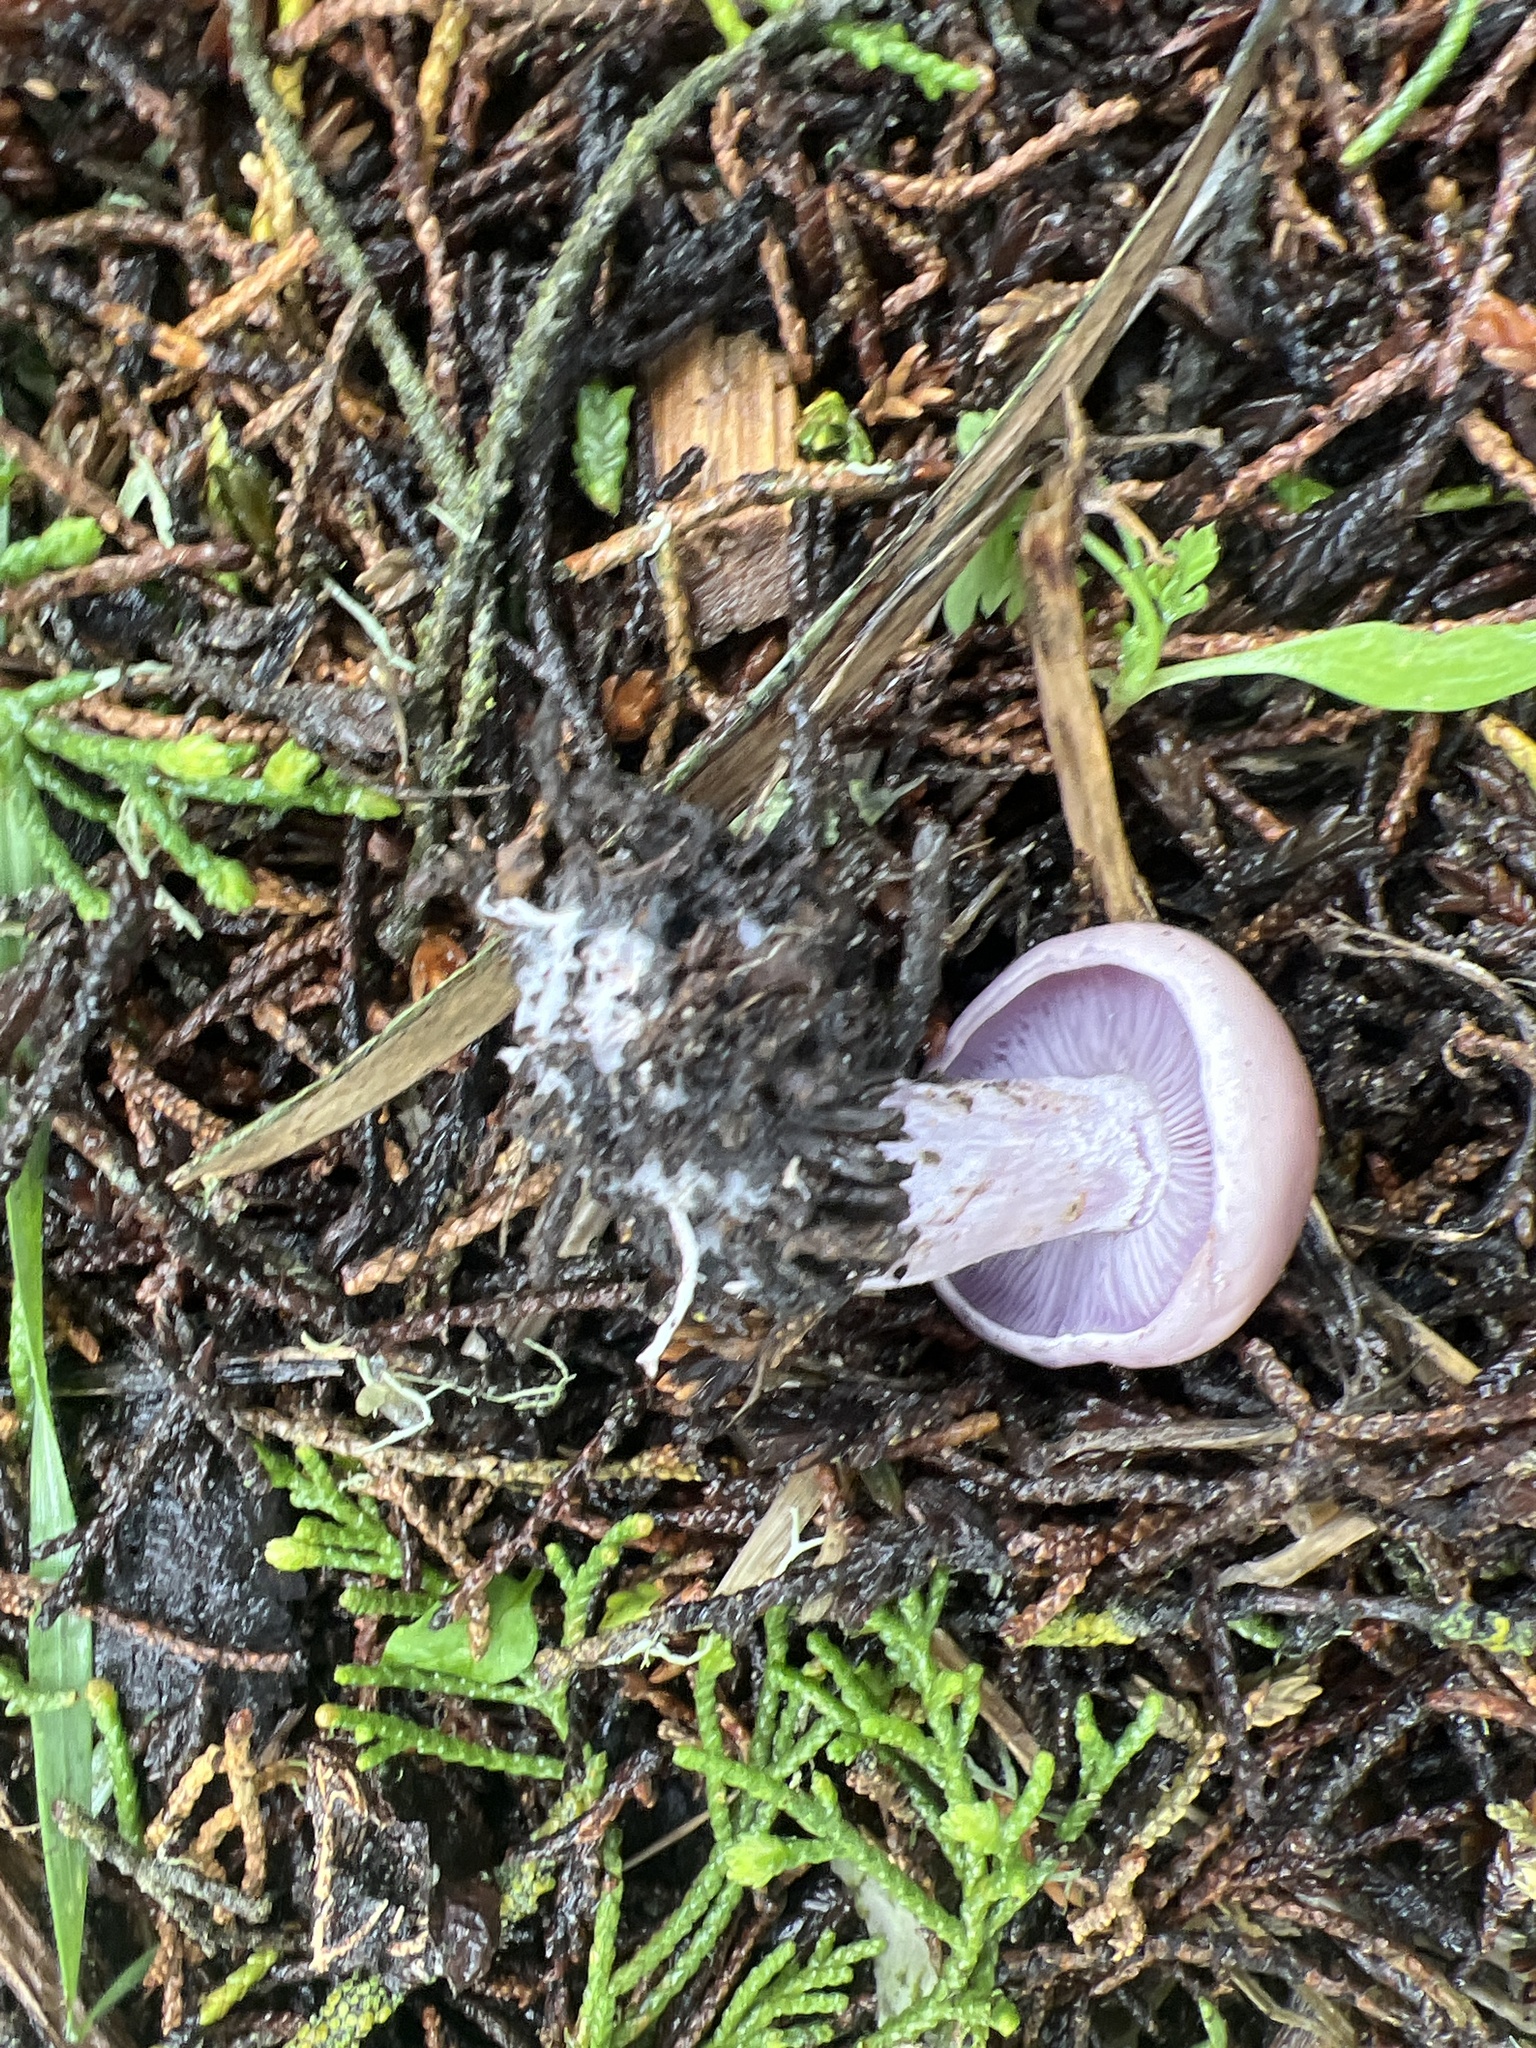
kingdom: Fungi
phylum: Basidiomycota
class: Agaricomycetes
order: Agaricales
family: Tricholomataceae
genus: Collybia
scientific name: Collybia
